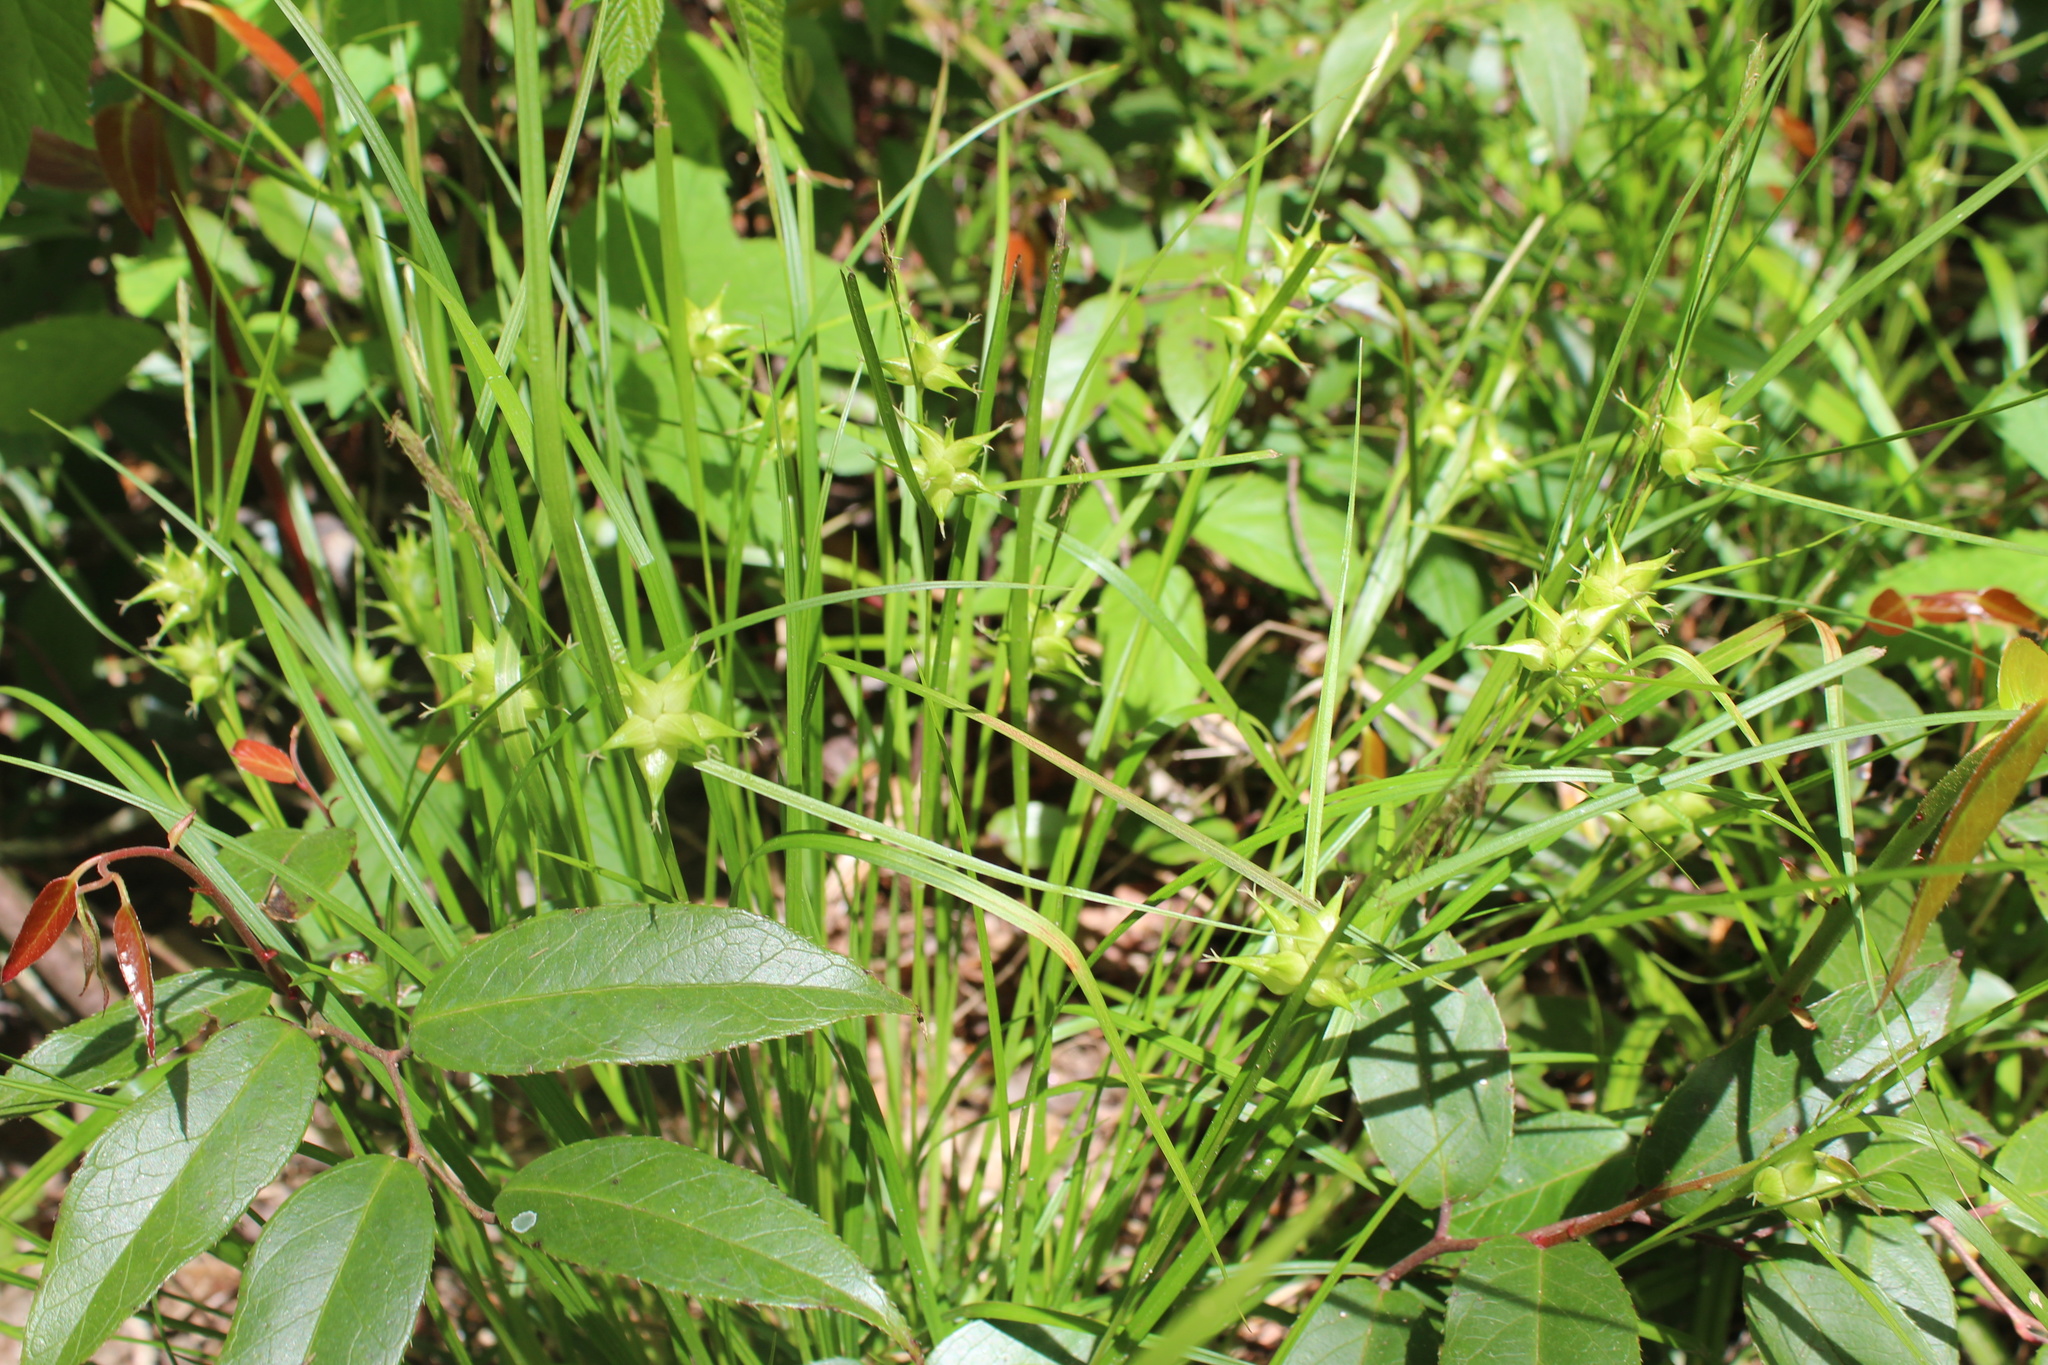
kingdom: Plantae
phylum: Tracheophyta
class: Liliopsida
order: Poales
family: Cyperaceae
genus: Carex
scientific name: Carex intumescens
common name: Greater bladder sedge
